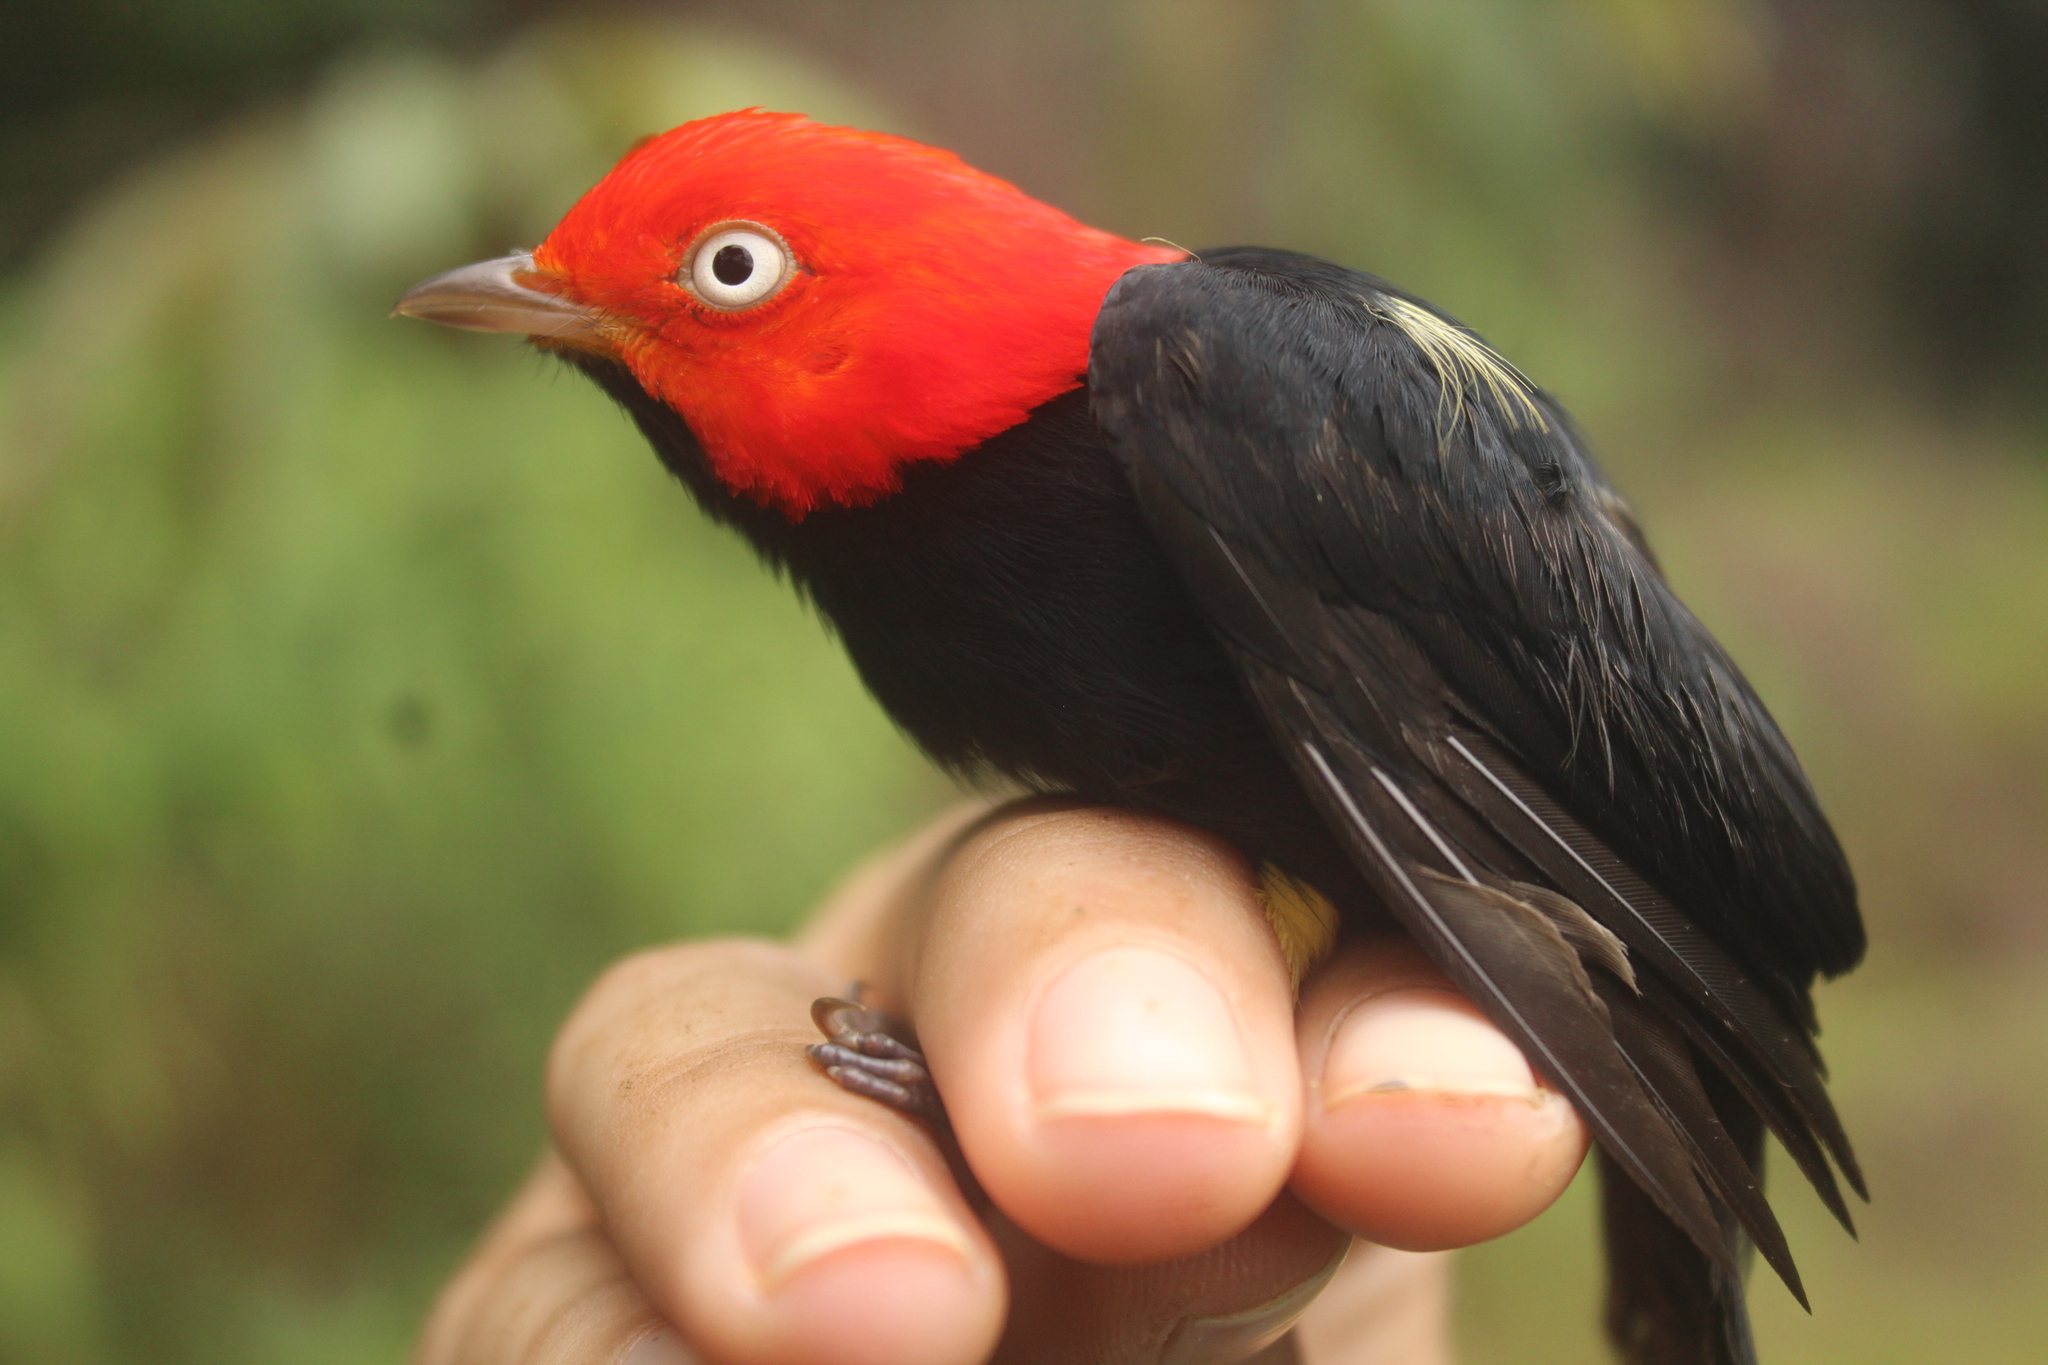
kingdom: Animalia
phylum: Chordata
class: Aves
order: Passeriformes
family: Pipridae
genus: Pipra
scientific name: Pipra mentalis
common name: Red-capped manakin
